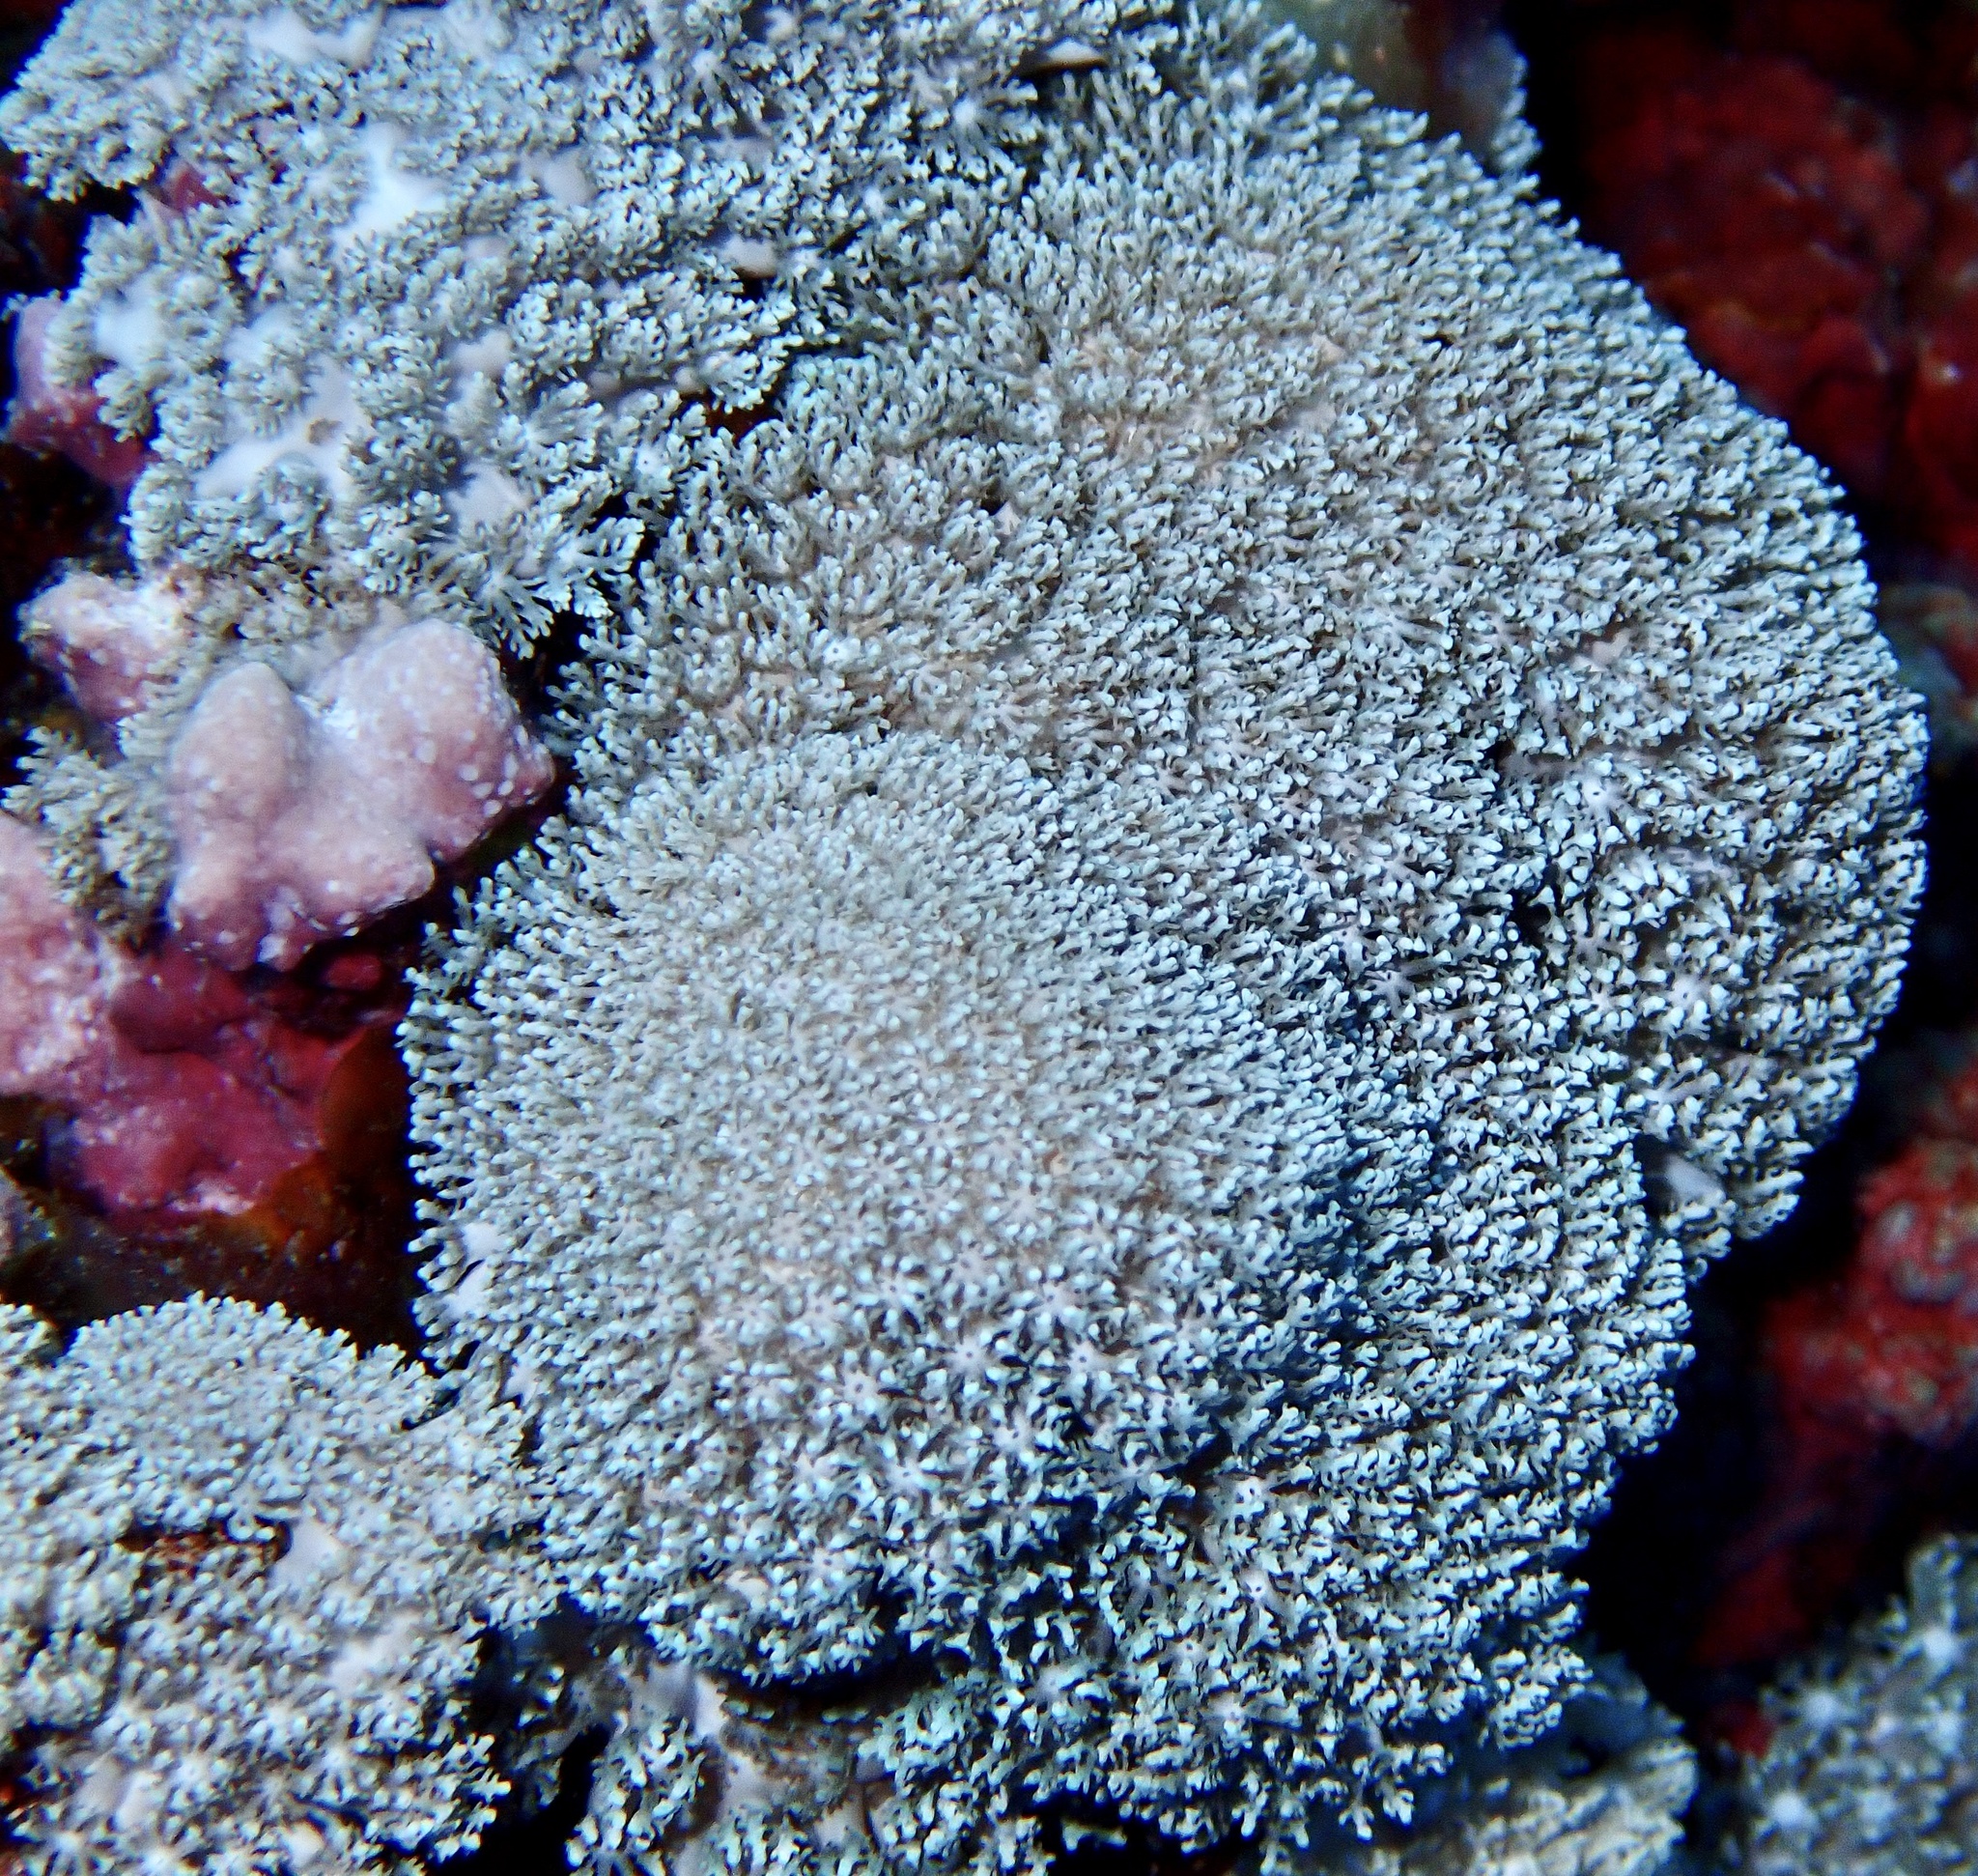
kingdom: Animalia
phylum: Cnidaria
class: Anthozoa
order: Malacalcyonacea
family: Xeniidae
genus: Sympodium
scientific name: Sympodium caeruleum
